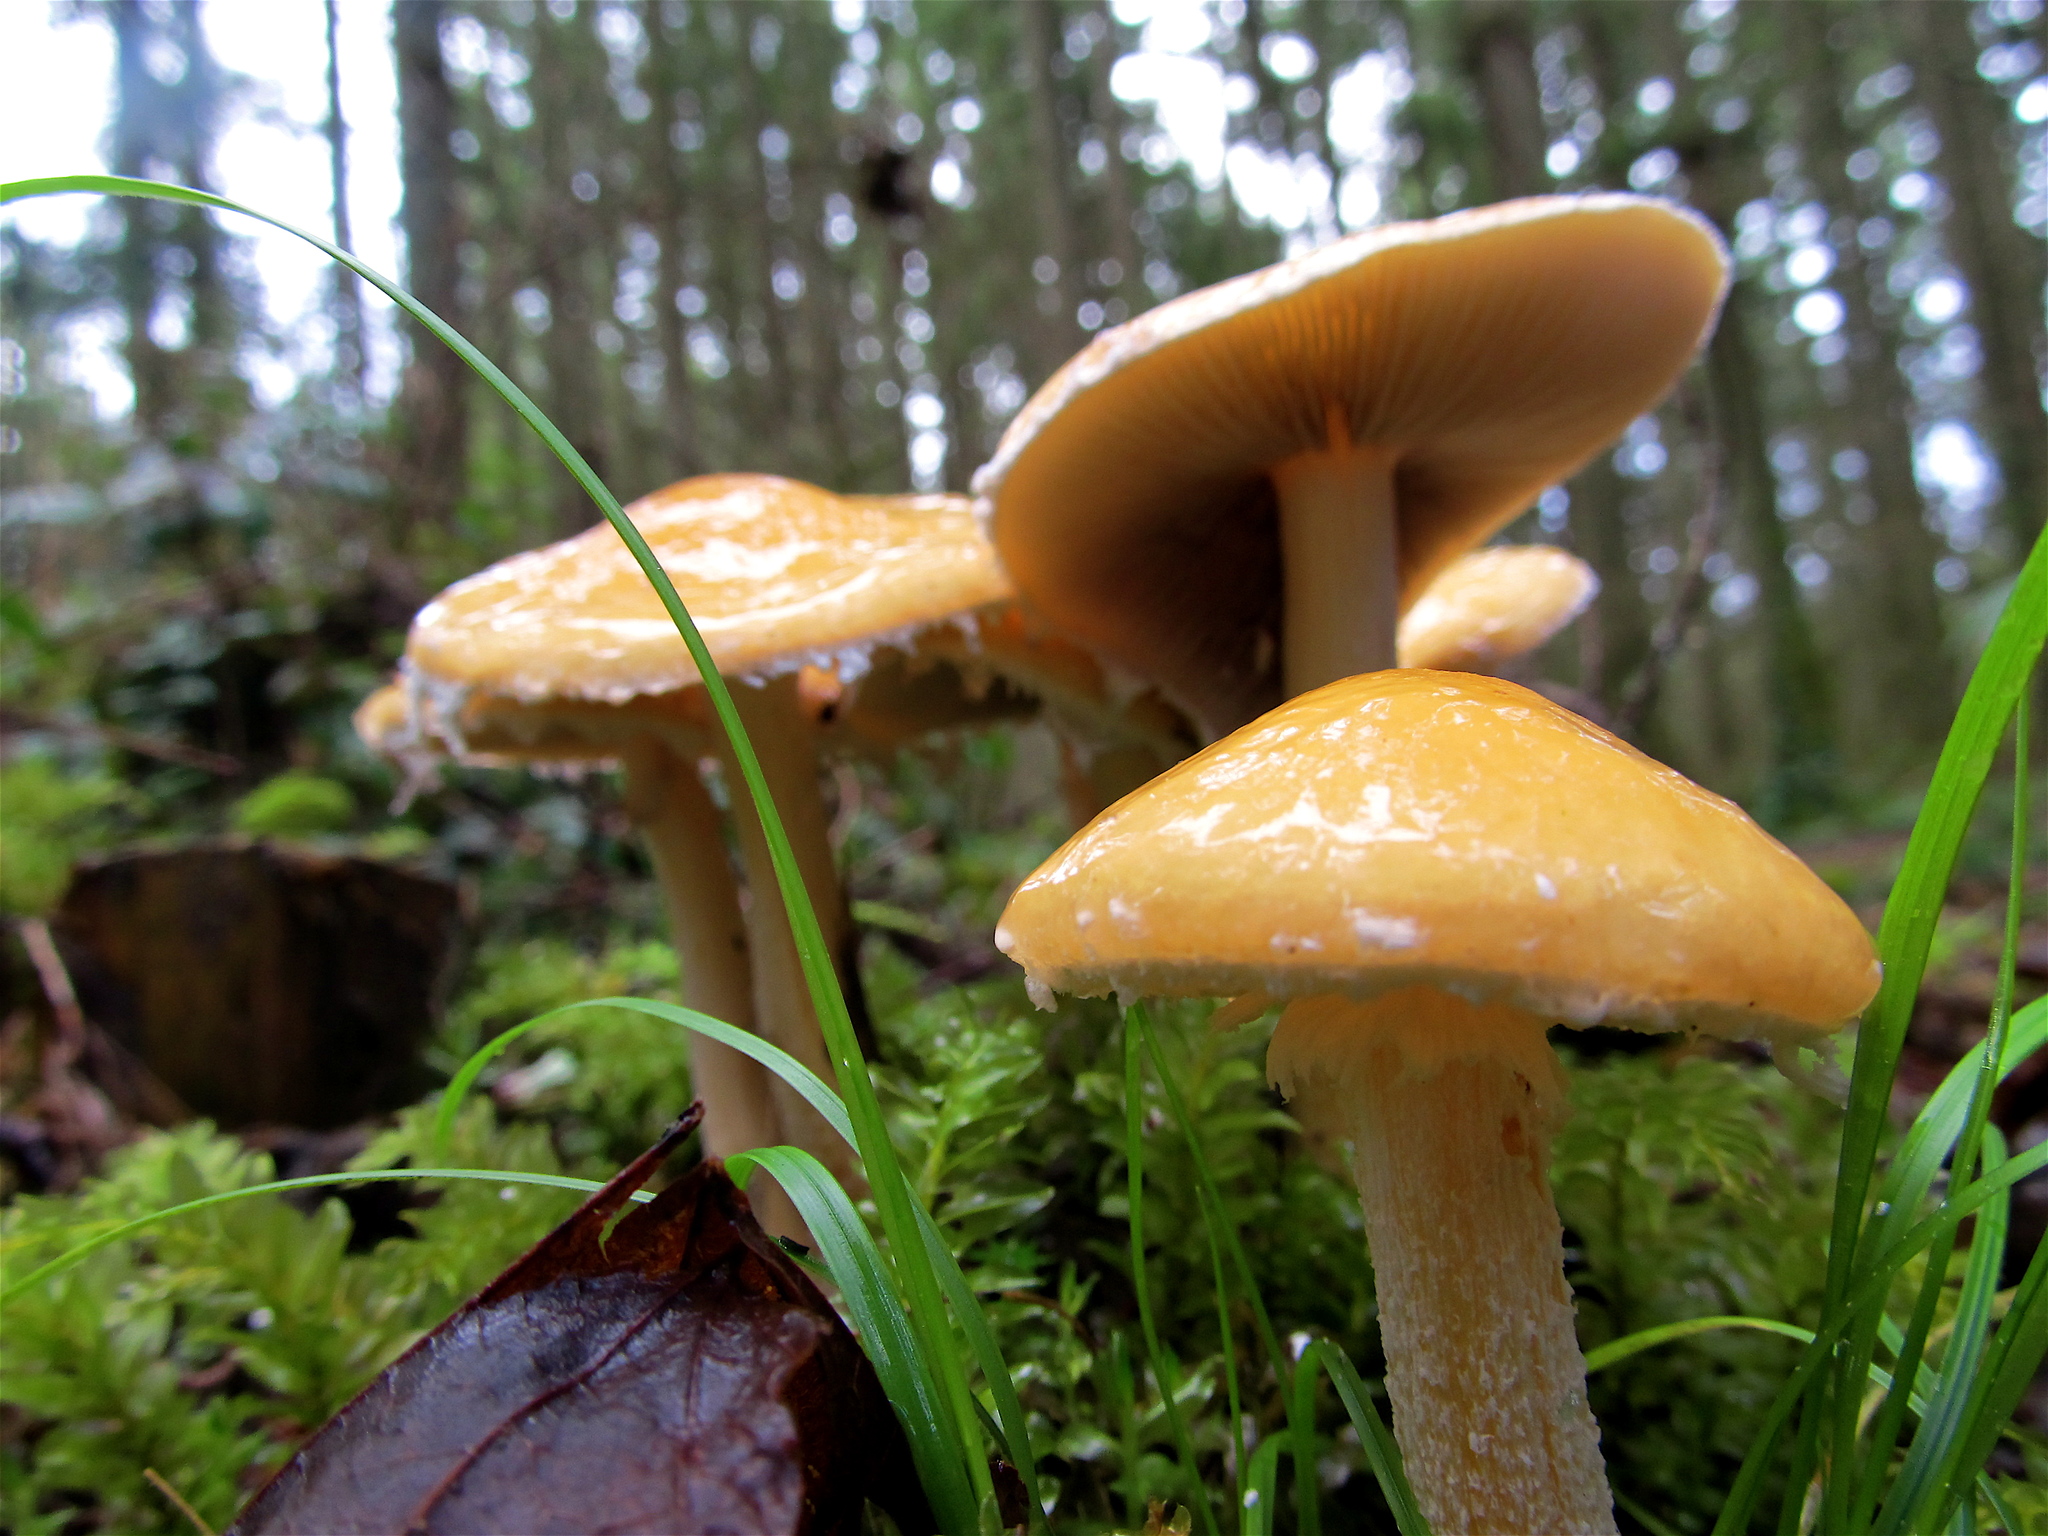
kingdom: Fungi
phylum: Basidiomycota
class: Agaricomycetes
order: Agaricales
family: Strophariaceae
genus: Stropharia
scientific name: Stropharia ambigua
